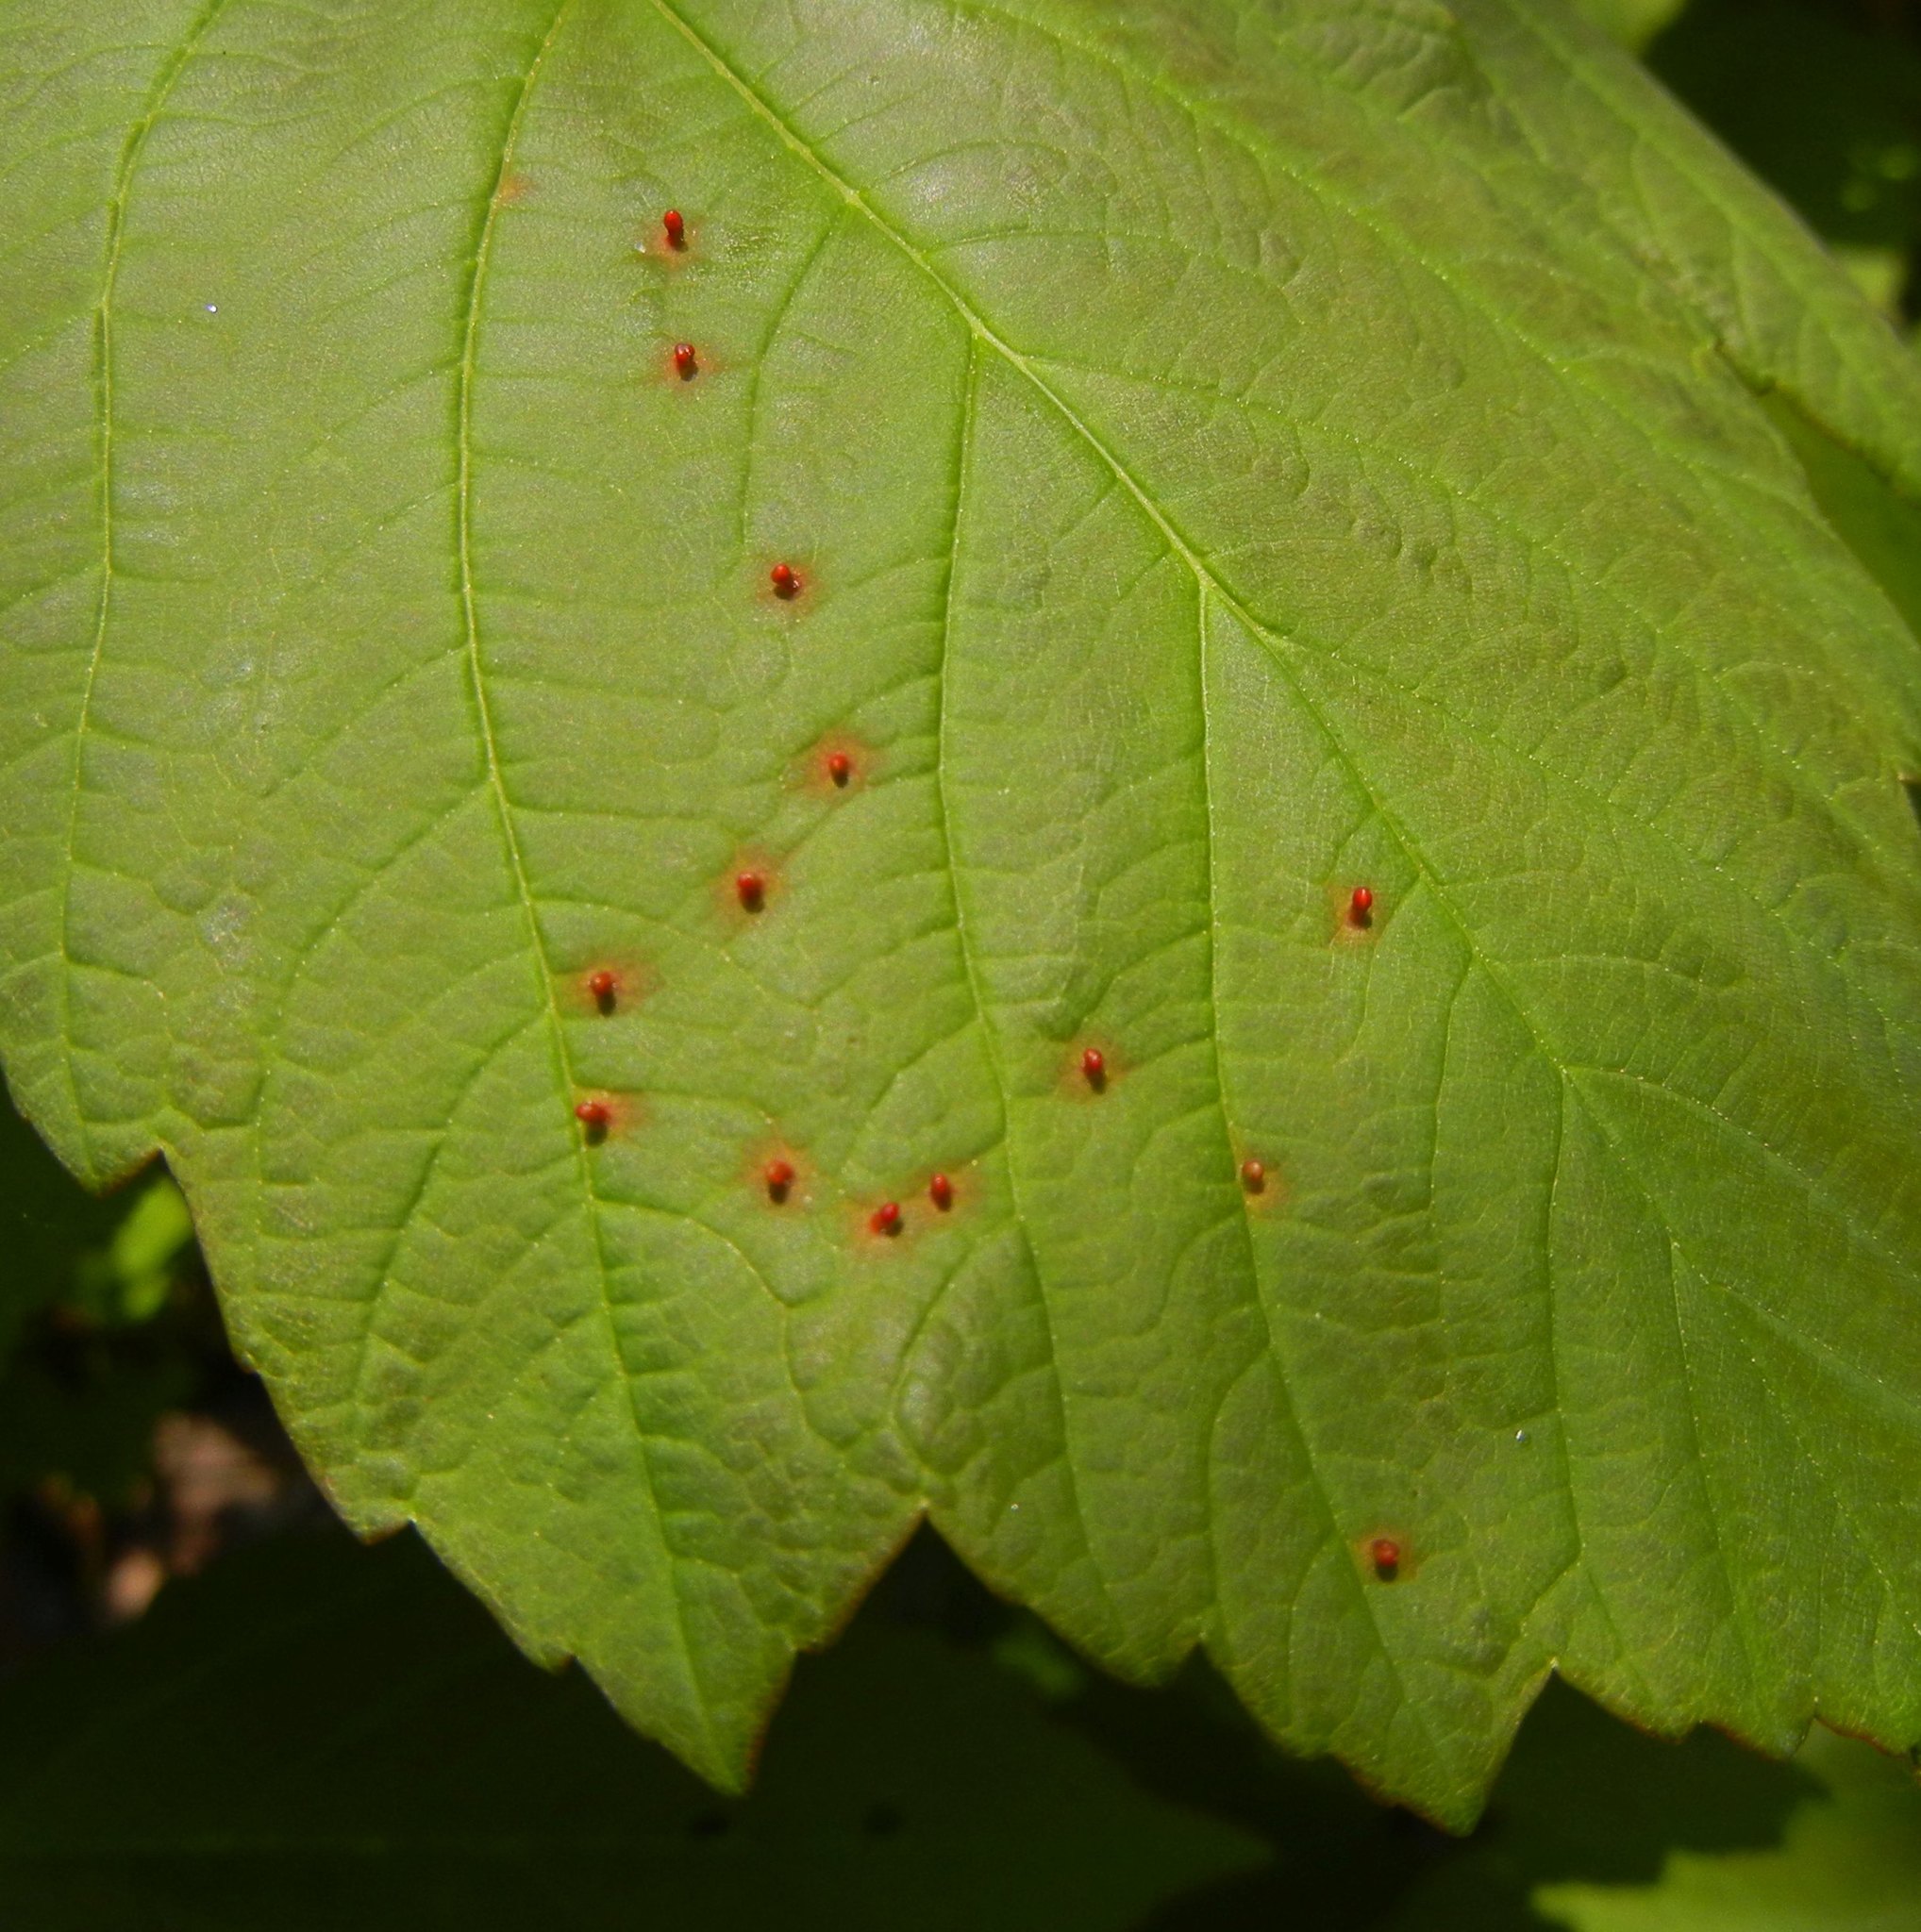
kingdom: Animalia
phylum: Arthropoda
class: Arachnida
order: Trombidiformes
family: Eriophyidae
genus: Aceria
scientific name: Aceria cephaloneus
